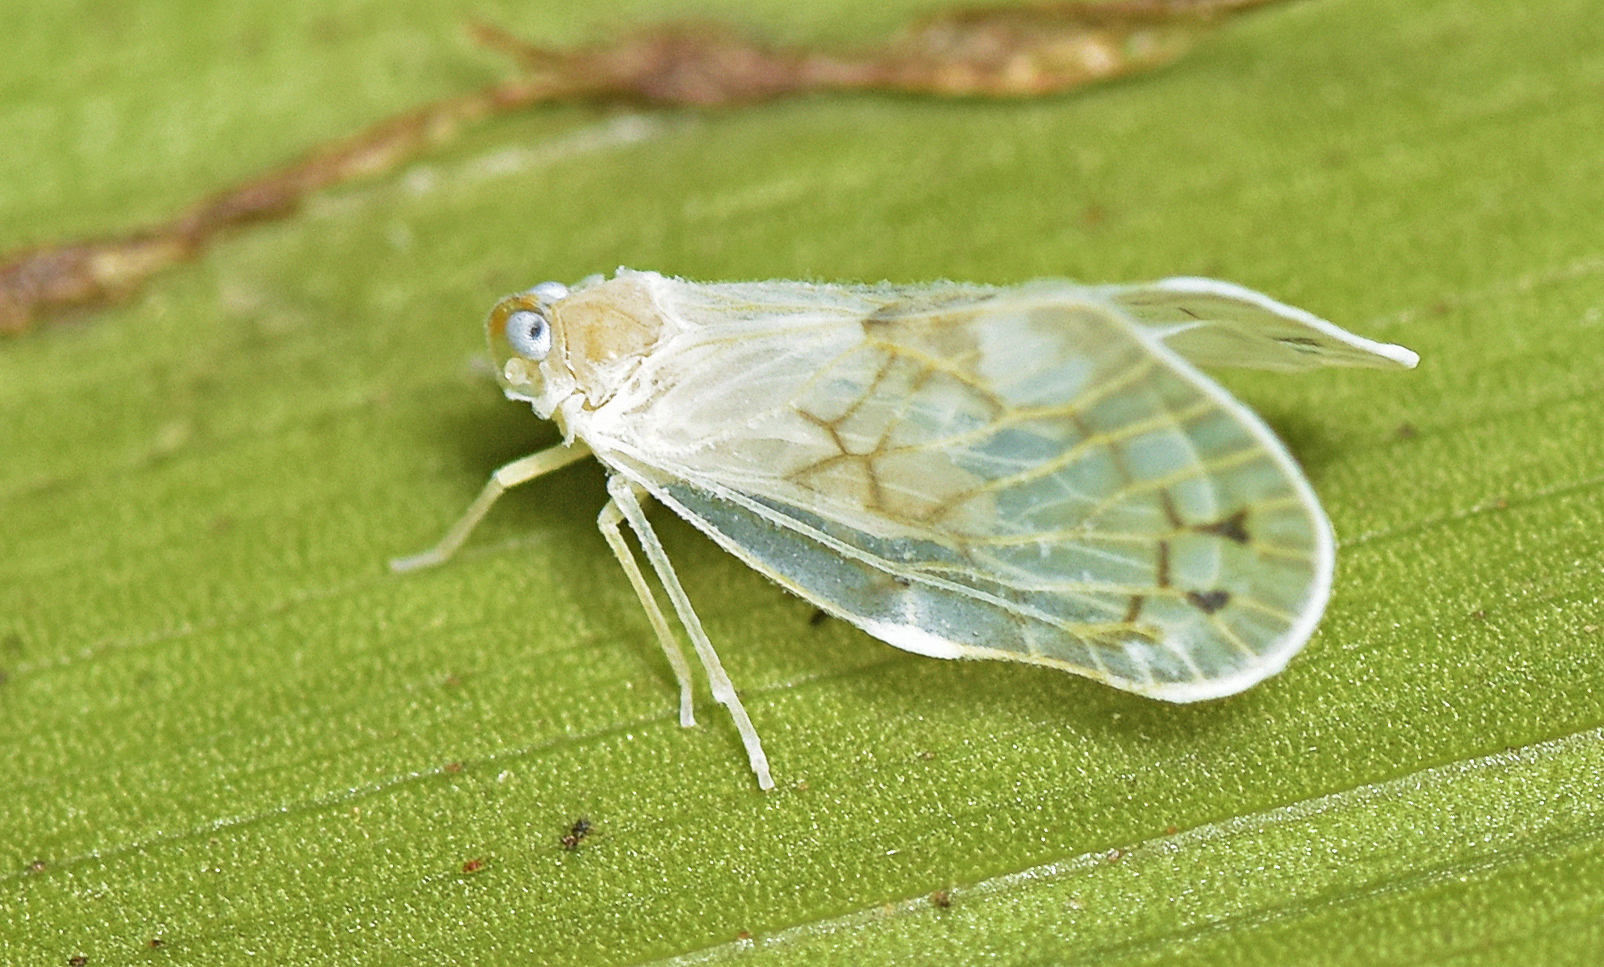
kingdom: Animalia
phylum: Arthropoda
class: Insecta
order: Hemiptera
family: Derbidae
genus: Levu
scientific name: Levu vitiensis
